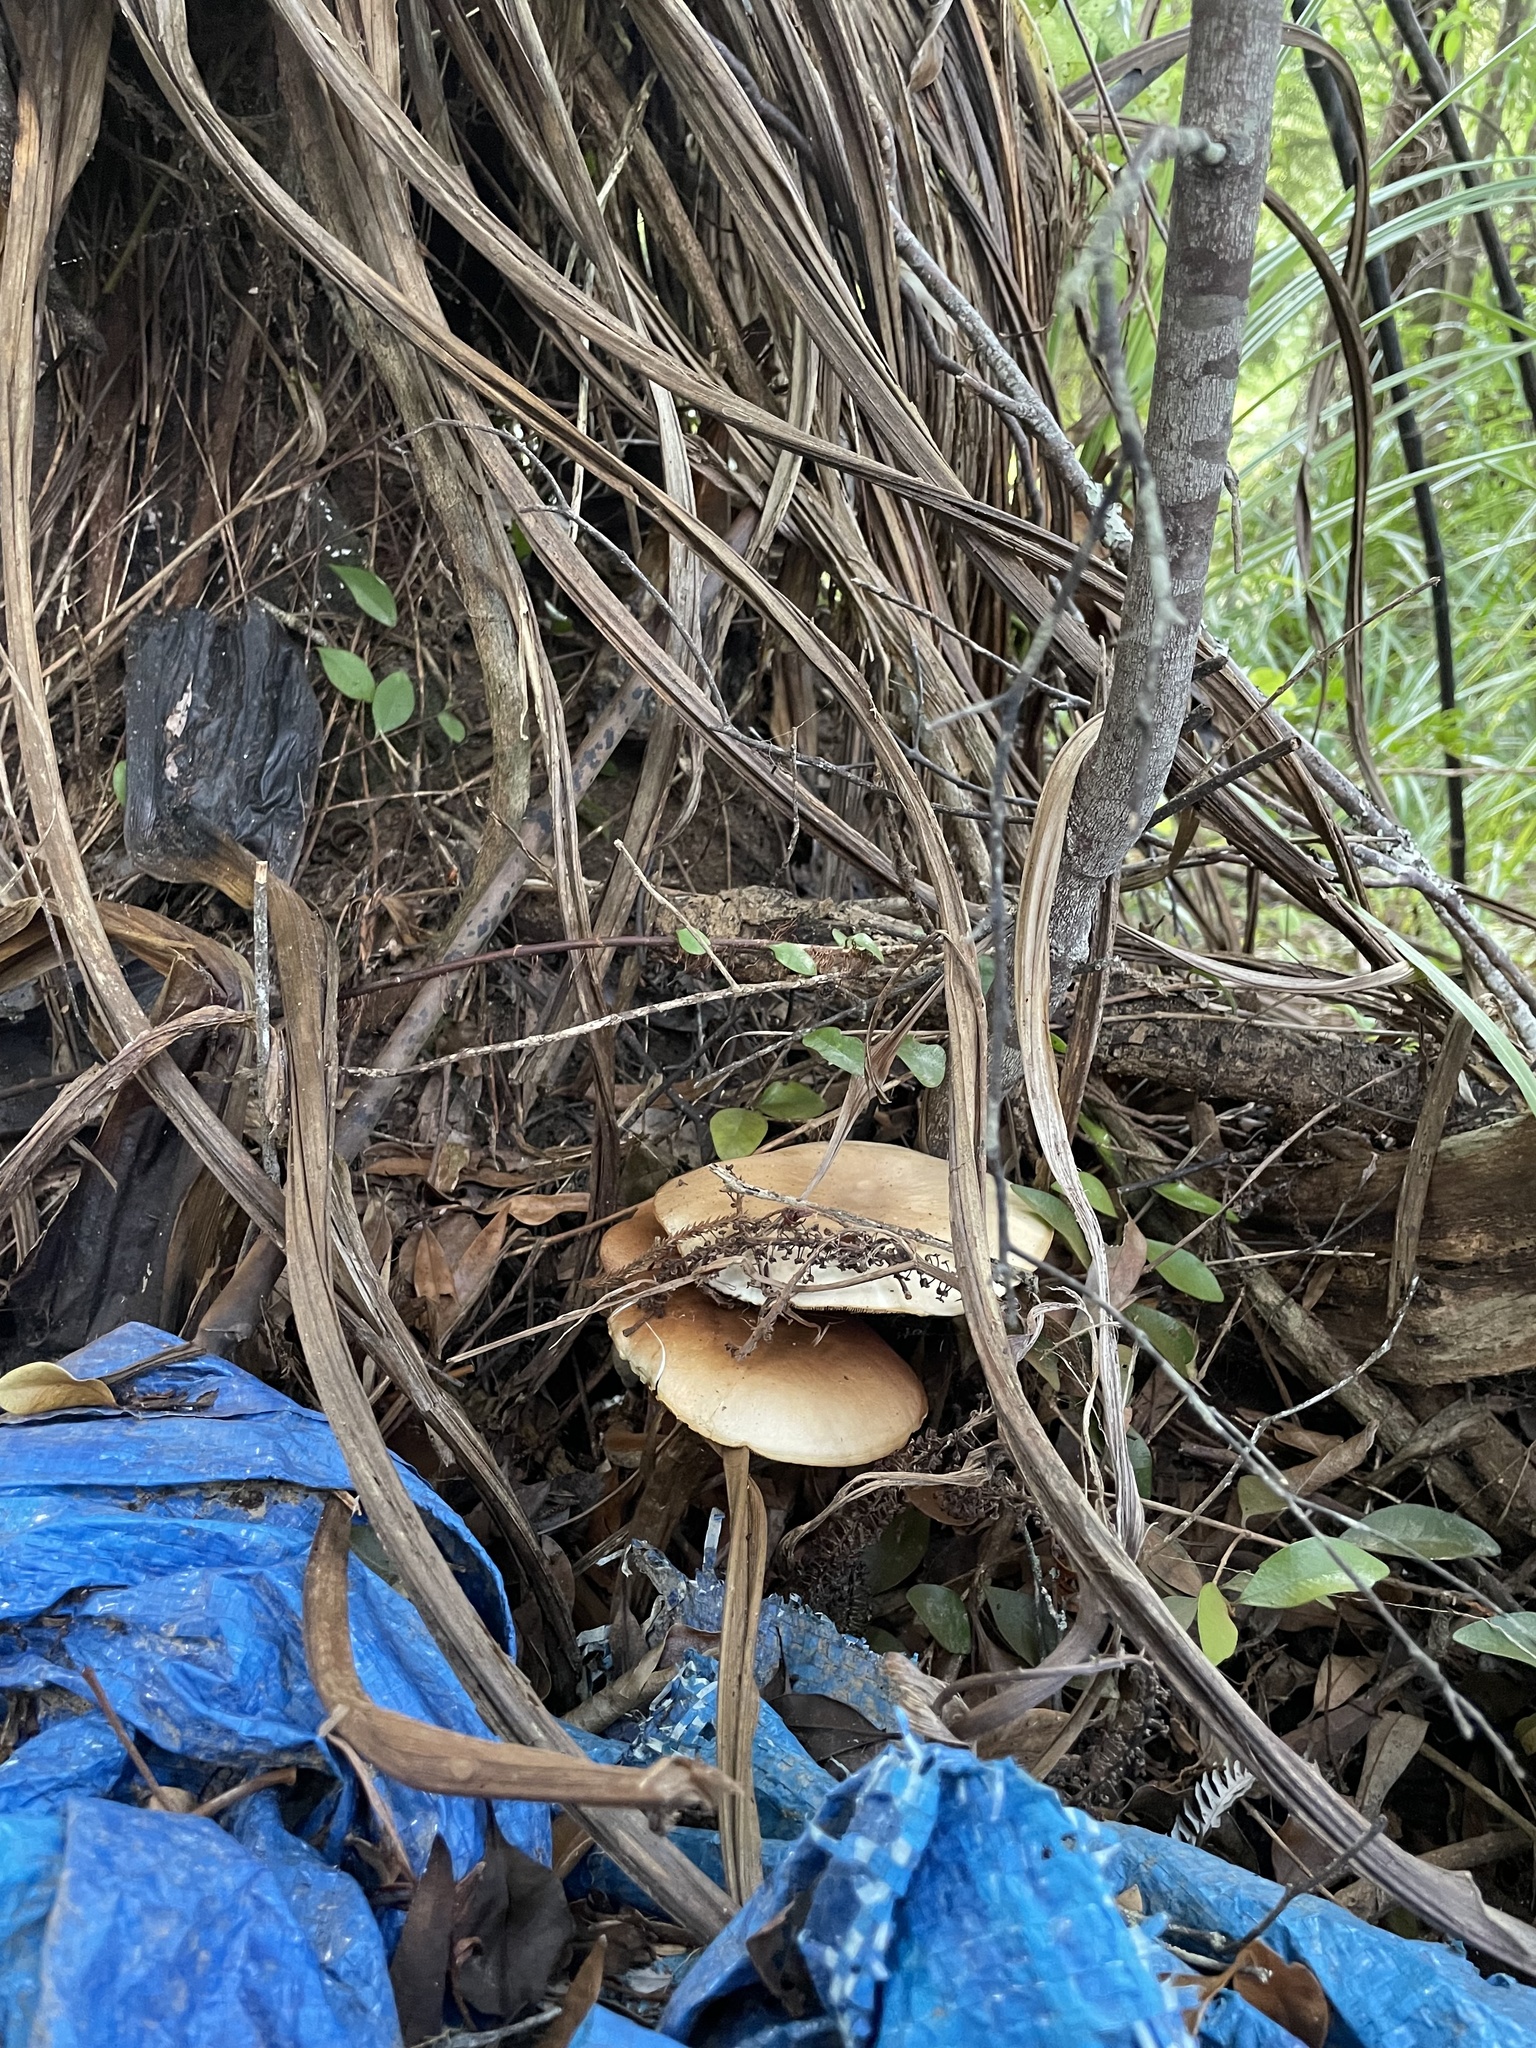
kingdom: Fungi
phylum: Basidiomycota
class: Agaricomycetes
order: Agaricales
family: Tubariaceae
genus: Cyclocybe
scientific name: Cyclocybe parasitica
